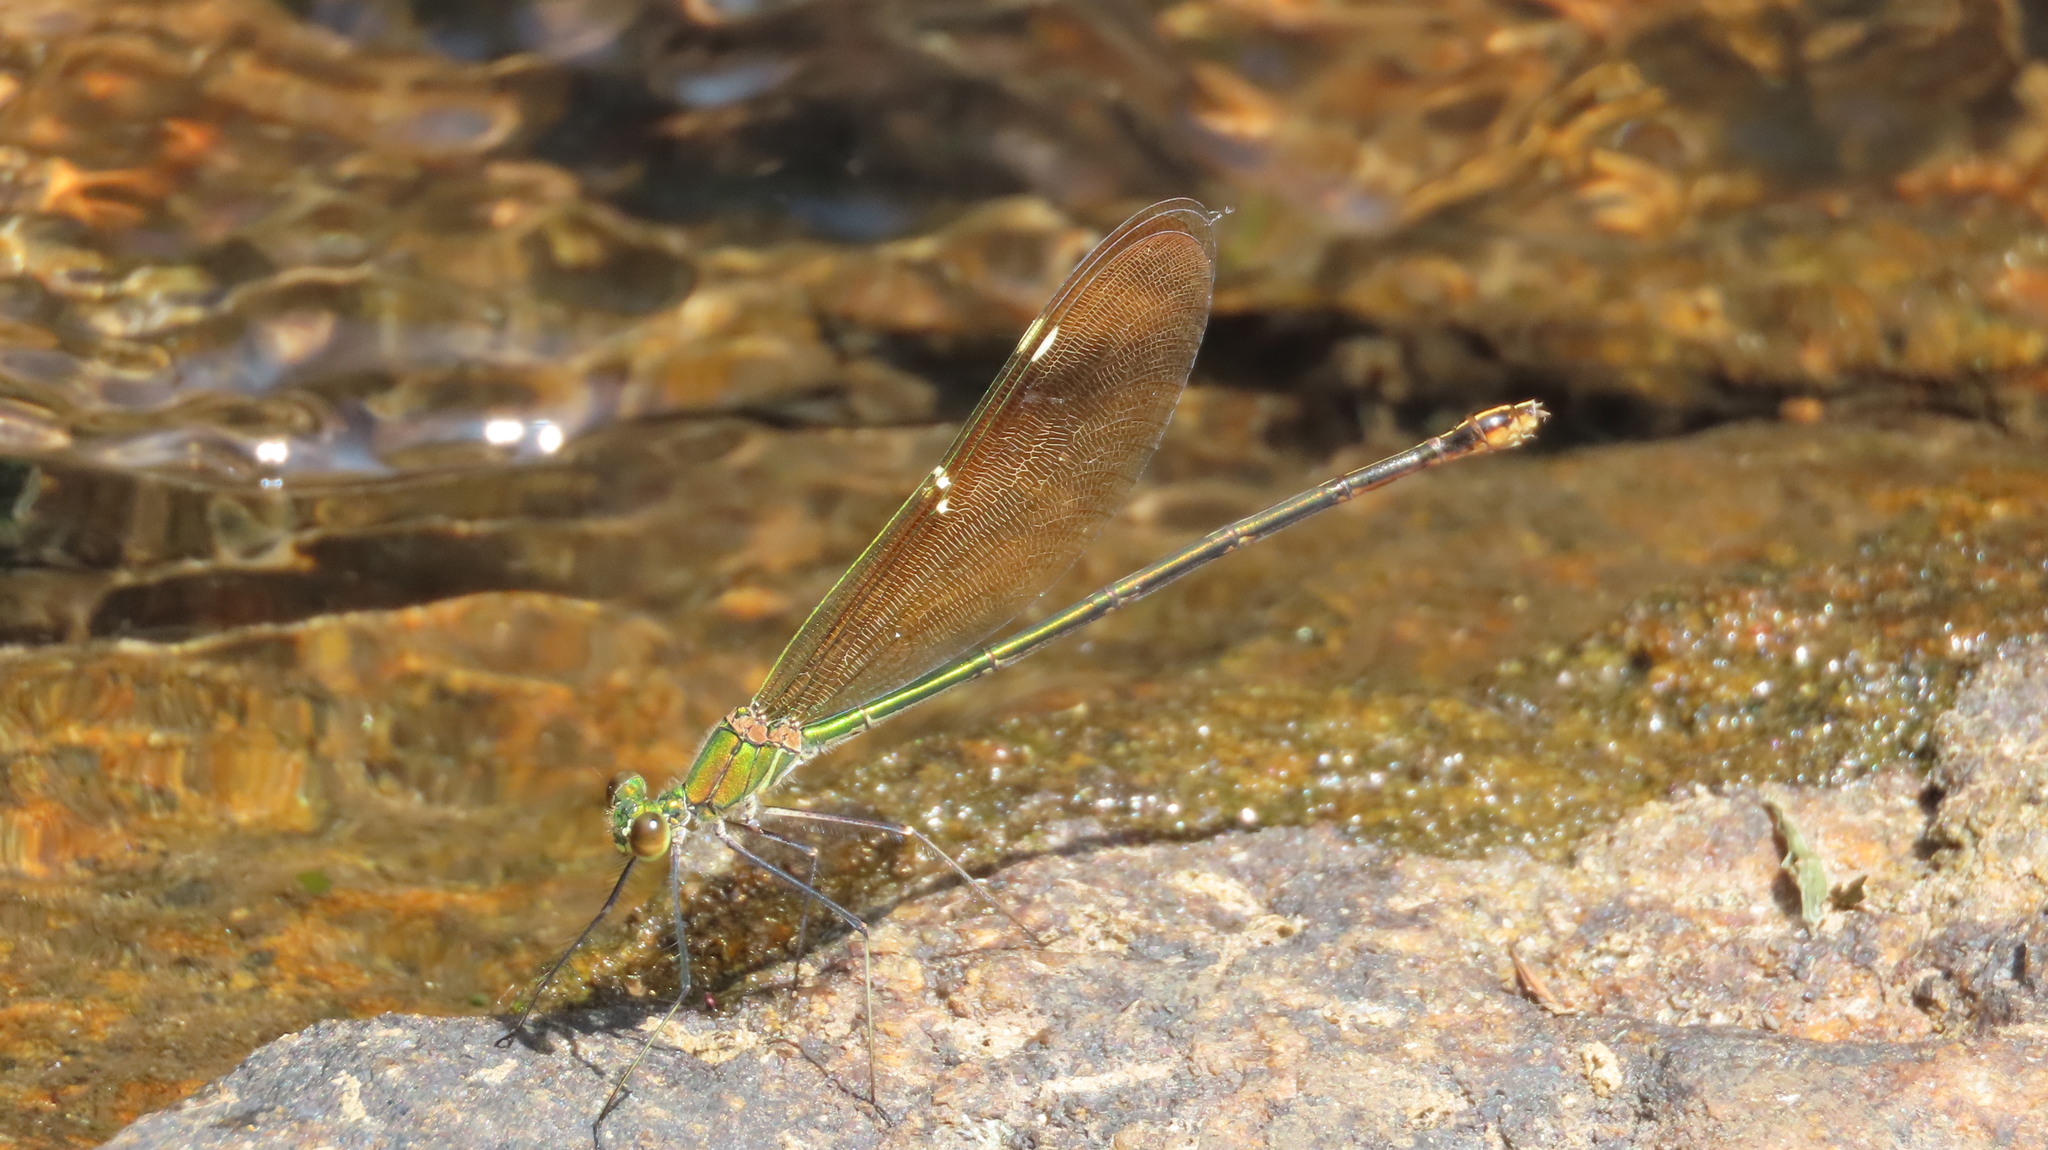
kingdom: Animalia
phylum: Arthropoda
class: Insecta
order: Odonata
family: Calopterygidae
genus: Neurobasis
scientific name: Neurobasis chinensis
